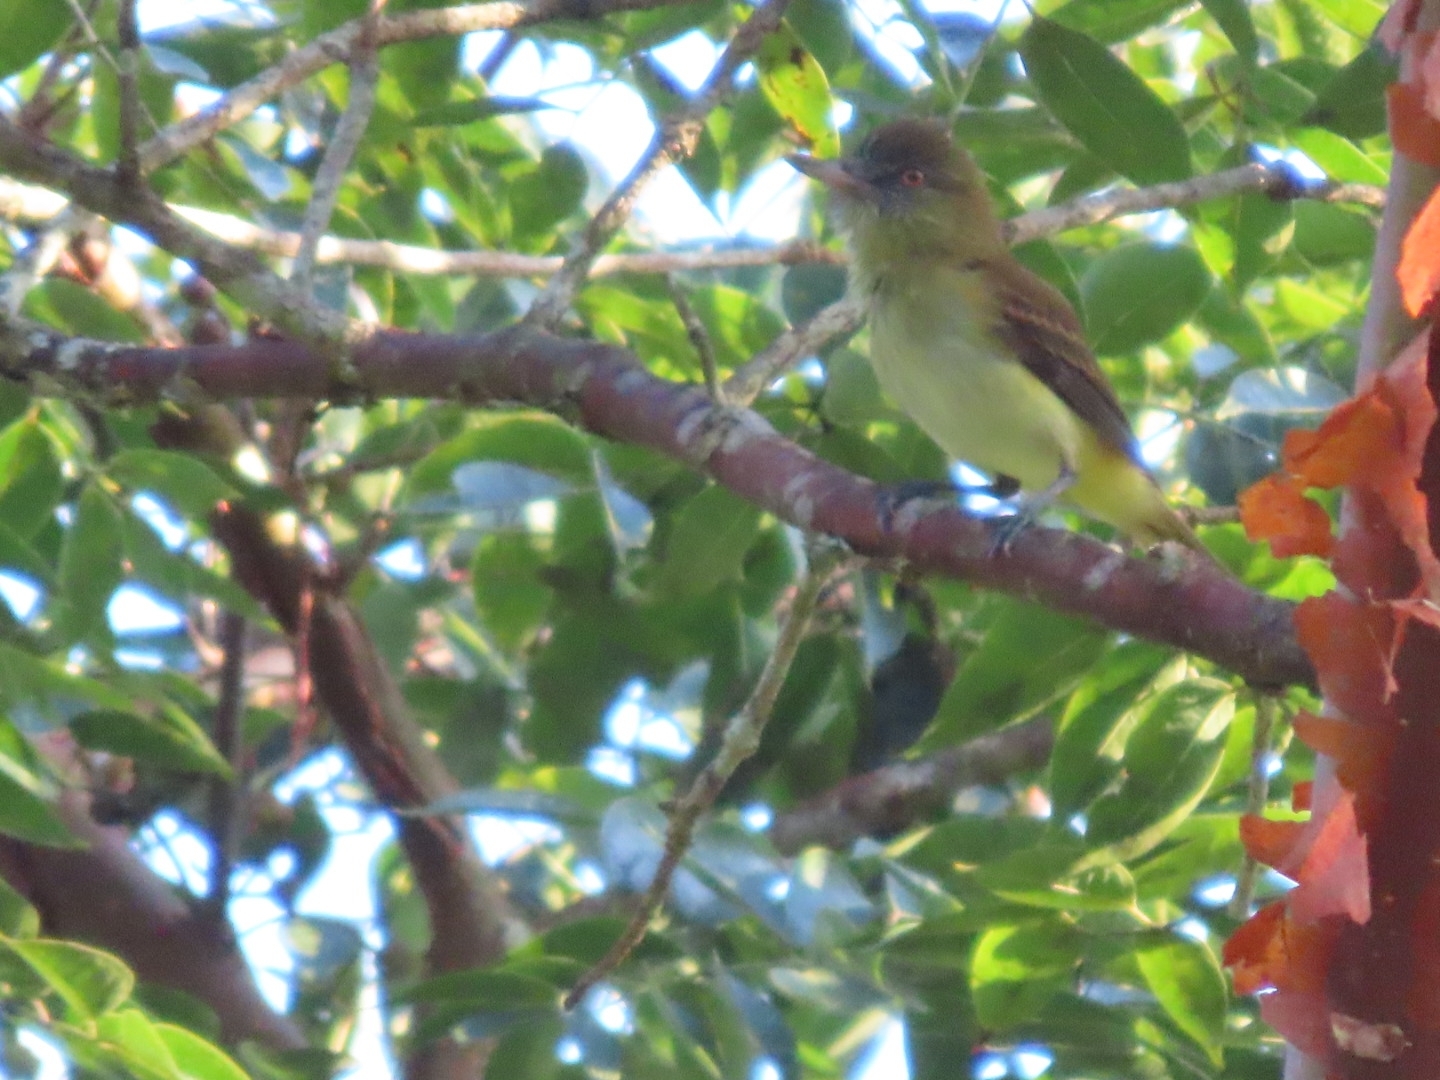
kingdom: Animalia
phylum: Chordata
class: Aves
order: Passeriformes
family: Tyrannidae
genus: Attila
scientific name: Attila spadiceus
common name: Bright-rumped attila
